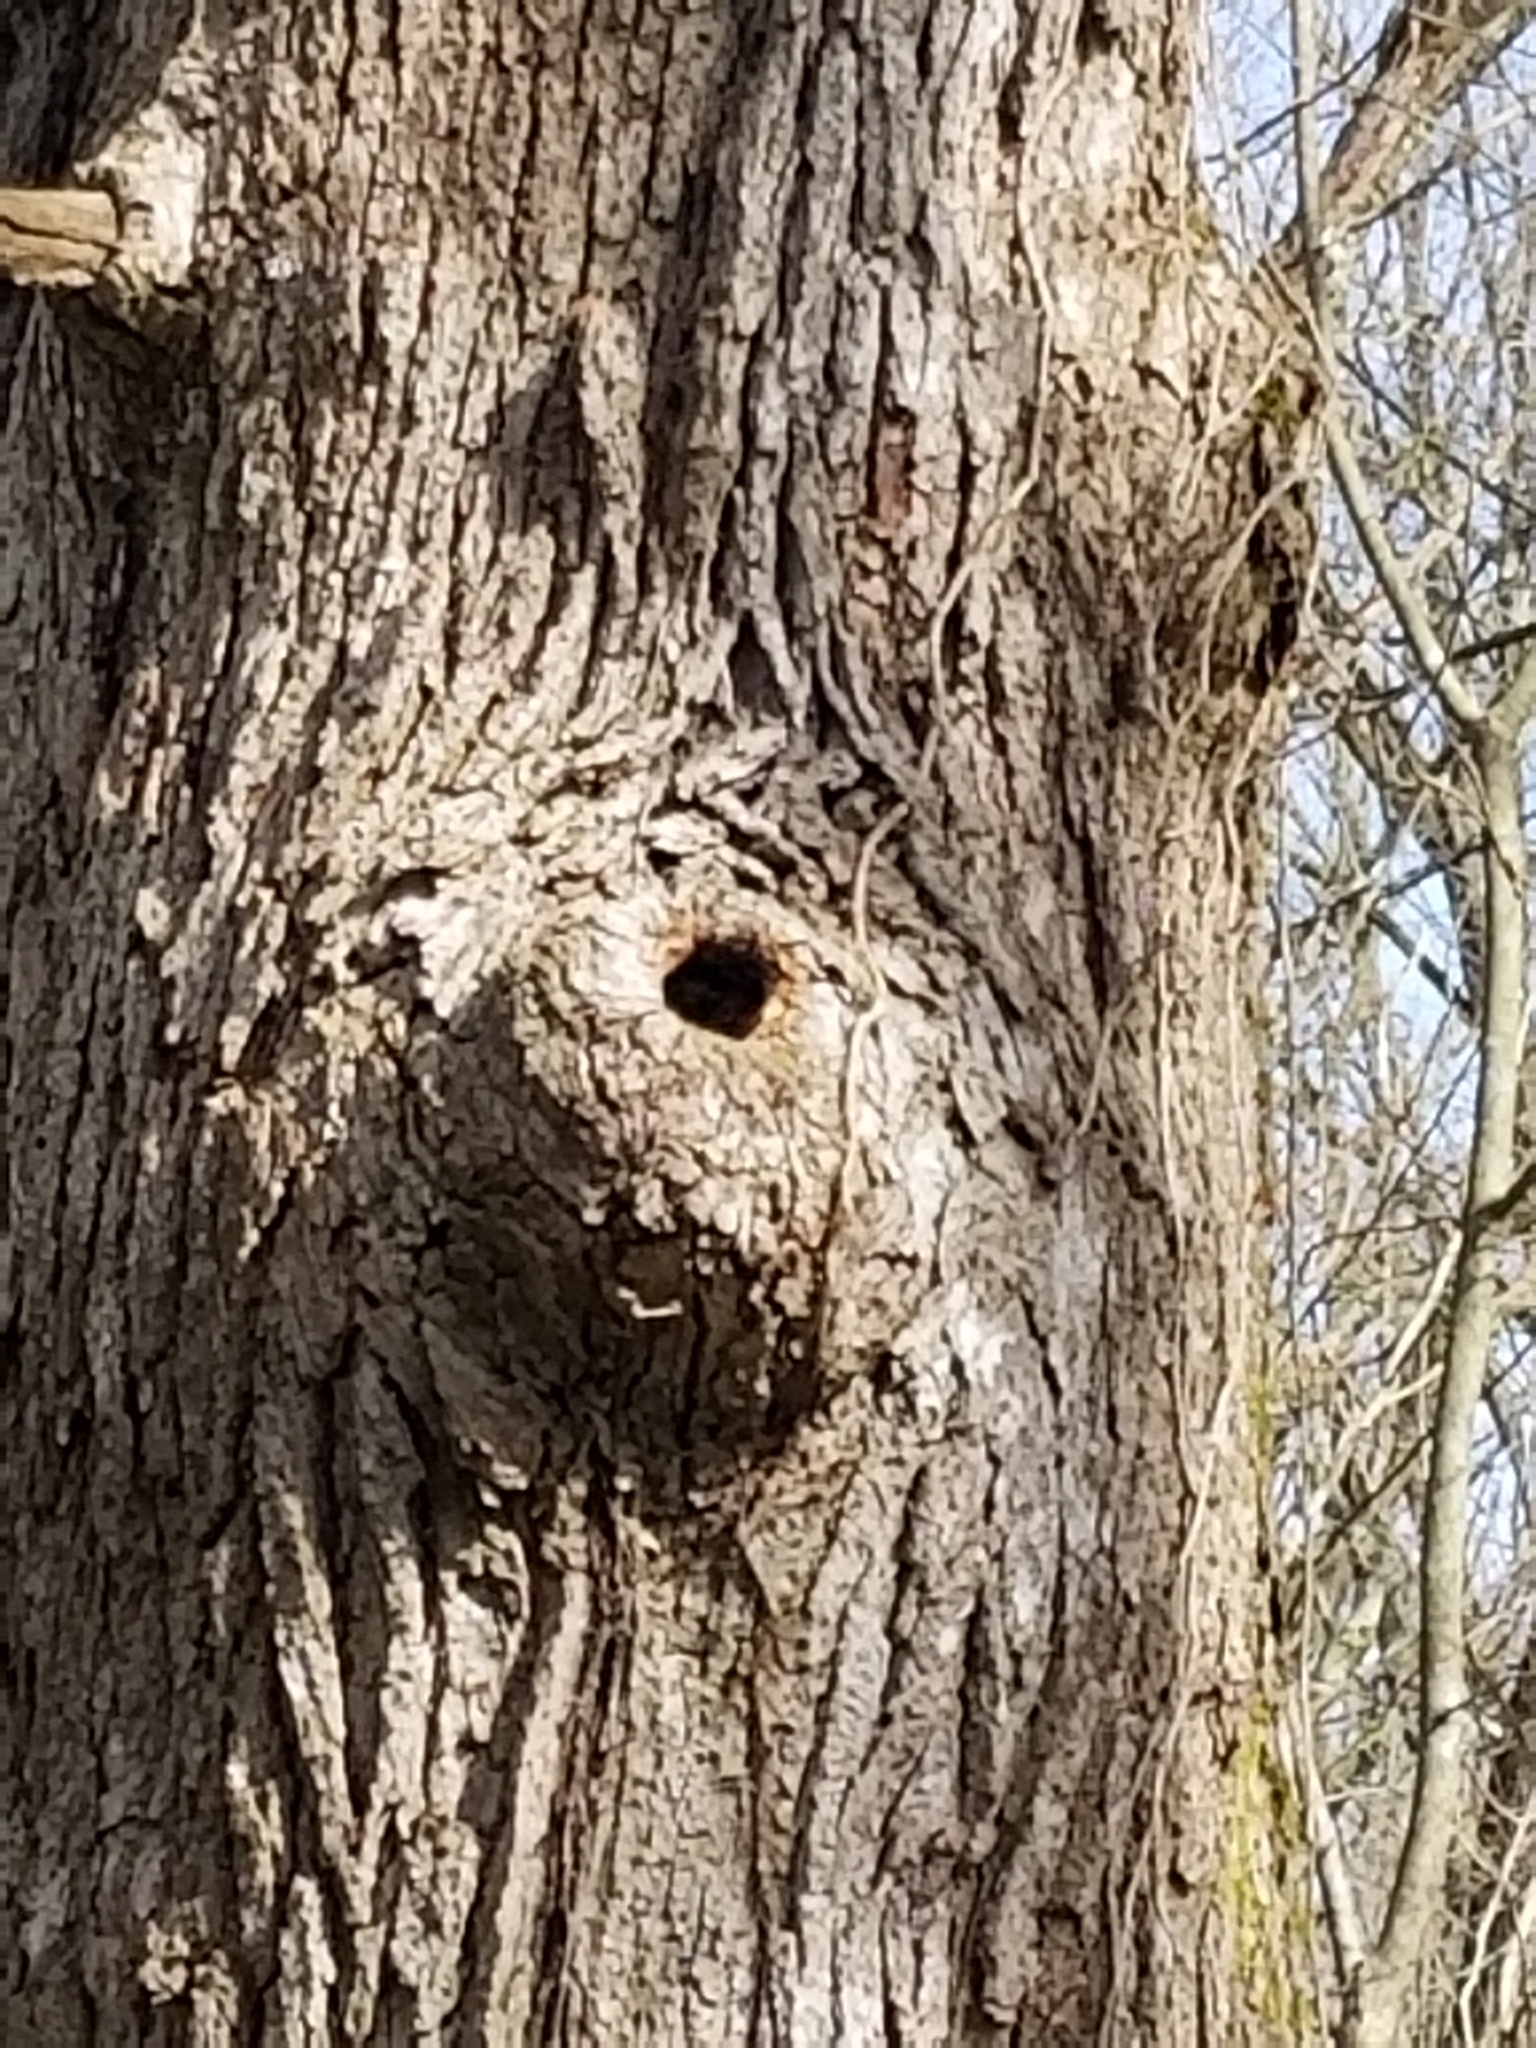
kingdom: Animalia
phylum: Chordata
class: Aves
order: Passeriformes
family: Sittidae
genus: Sitta
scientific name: Sitta carolinensis
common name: White-breasted nuthatch
